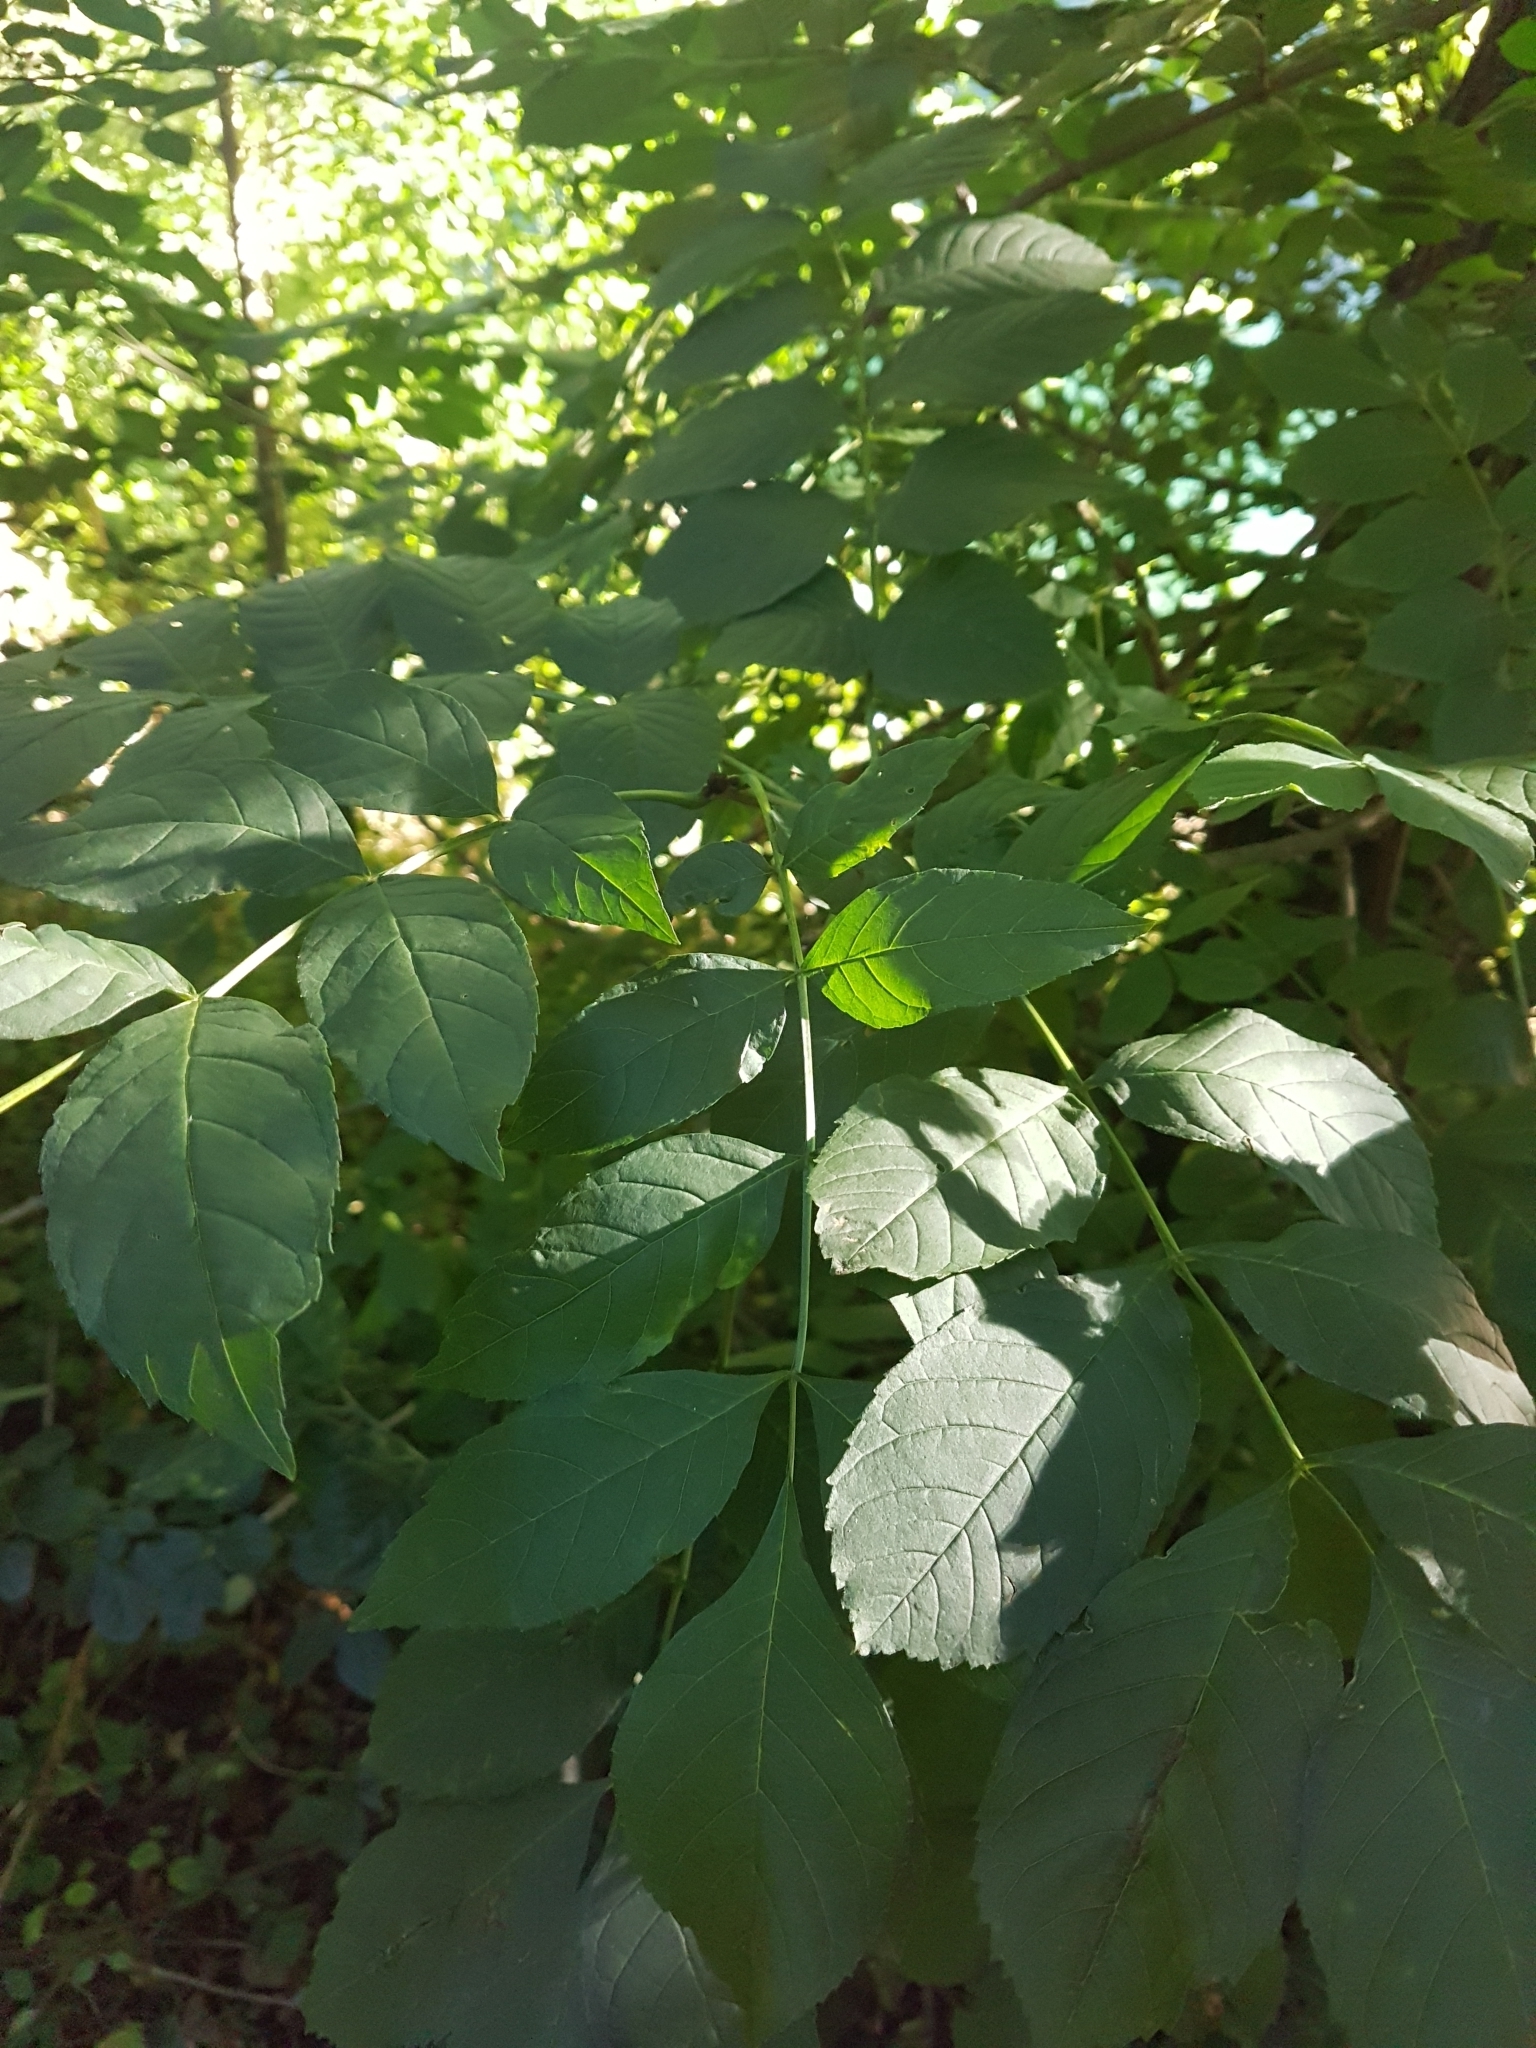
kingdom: Plantae
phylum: Tracheophyta
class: Magnoliopsida
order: Lamiales
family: Oleaceae
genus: Fraxinus
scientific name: Fraxinus excelsior
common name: European ash
